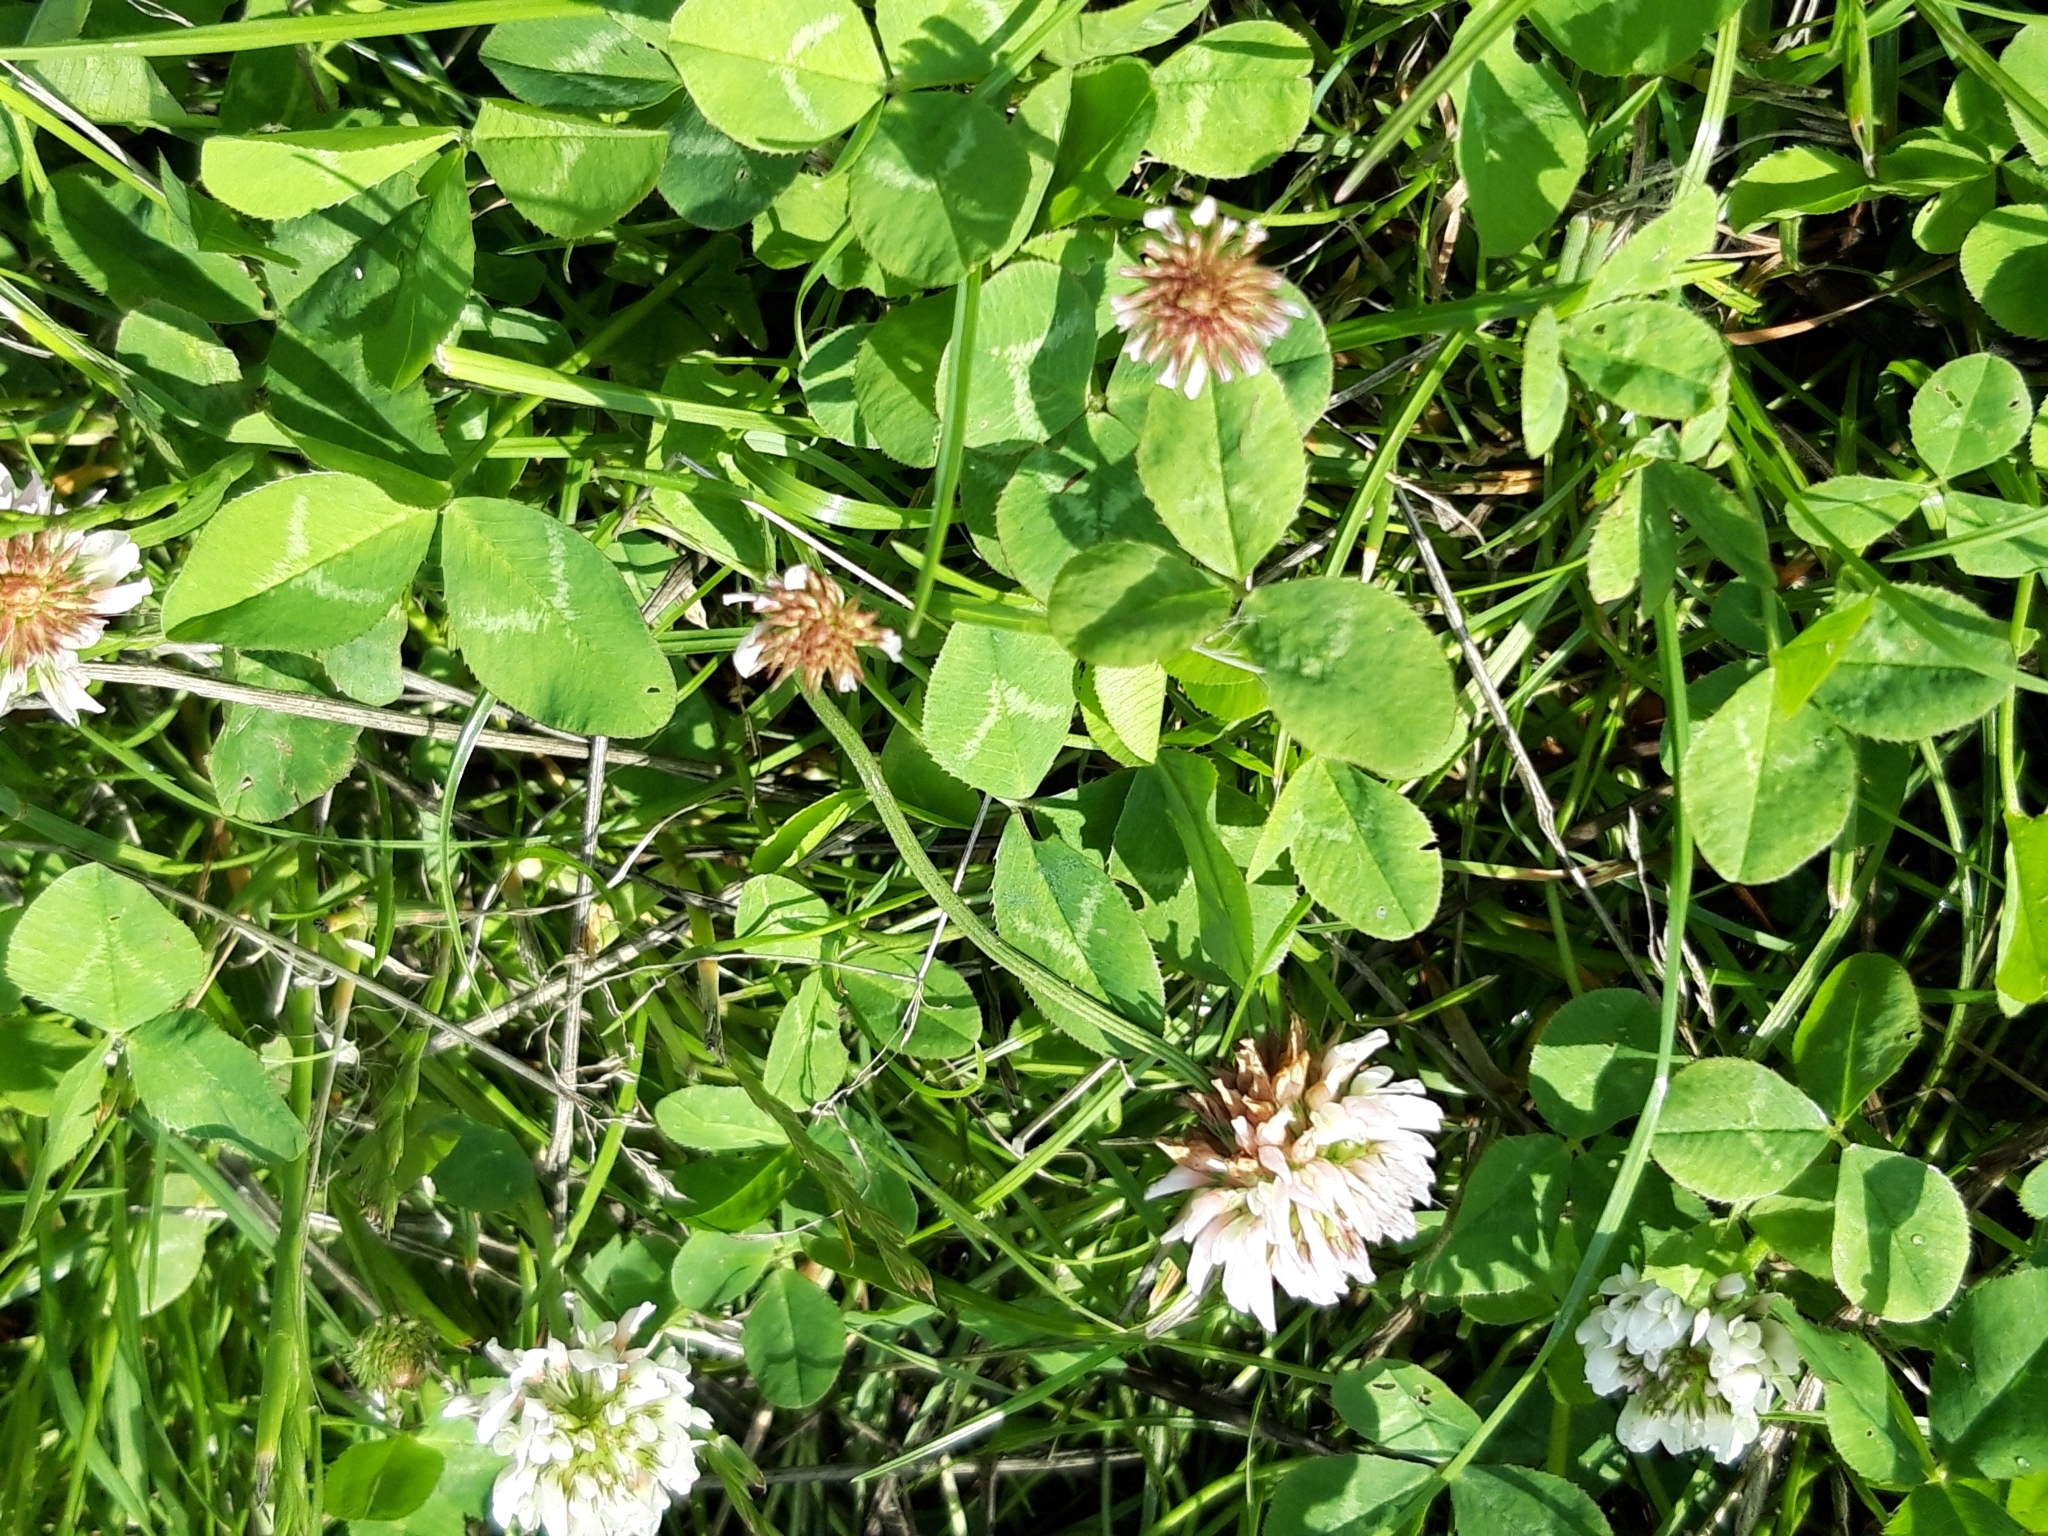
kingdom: Plantae
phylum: Tracheophyta
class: Magnoliopsida
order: Fabales
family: Fabaceae
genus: Trifolium
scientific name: Trifolium repens
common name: White clover
